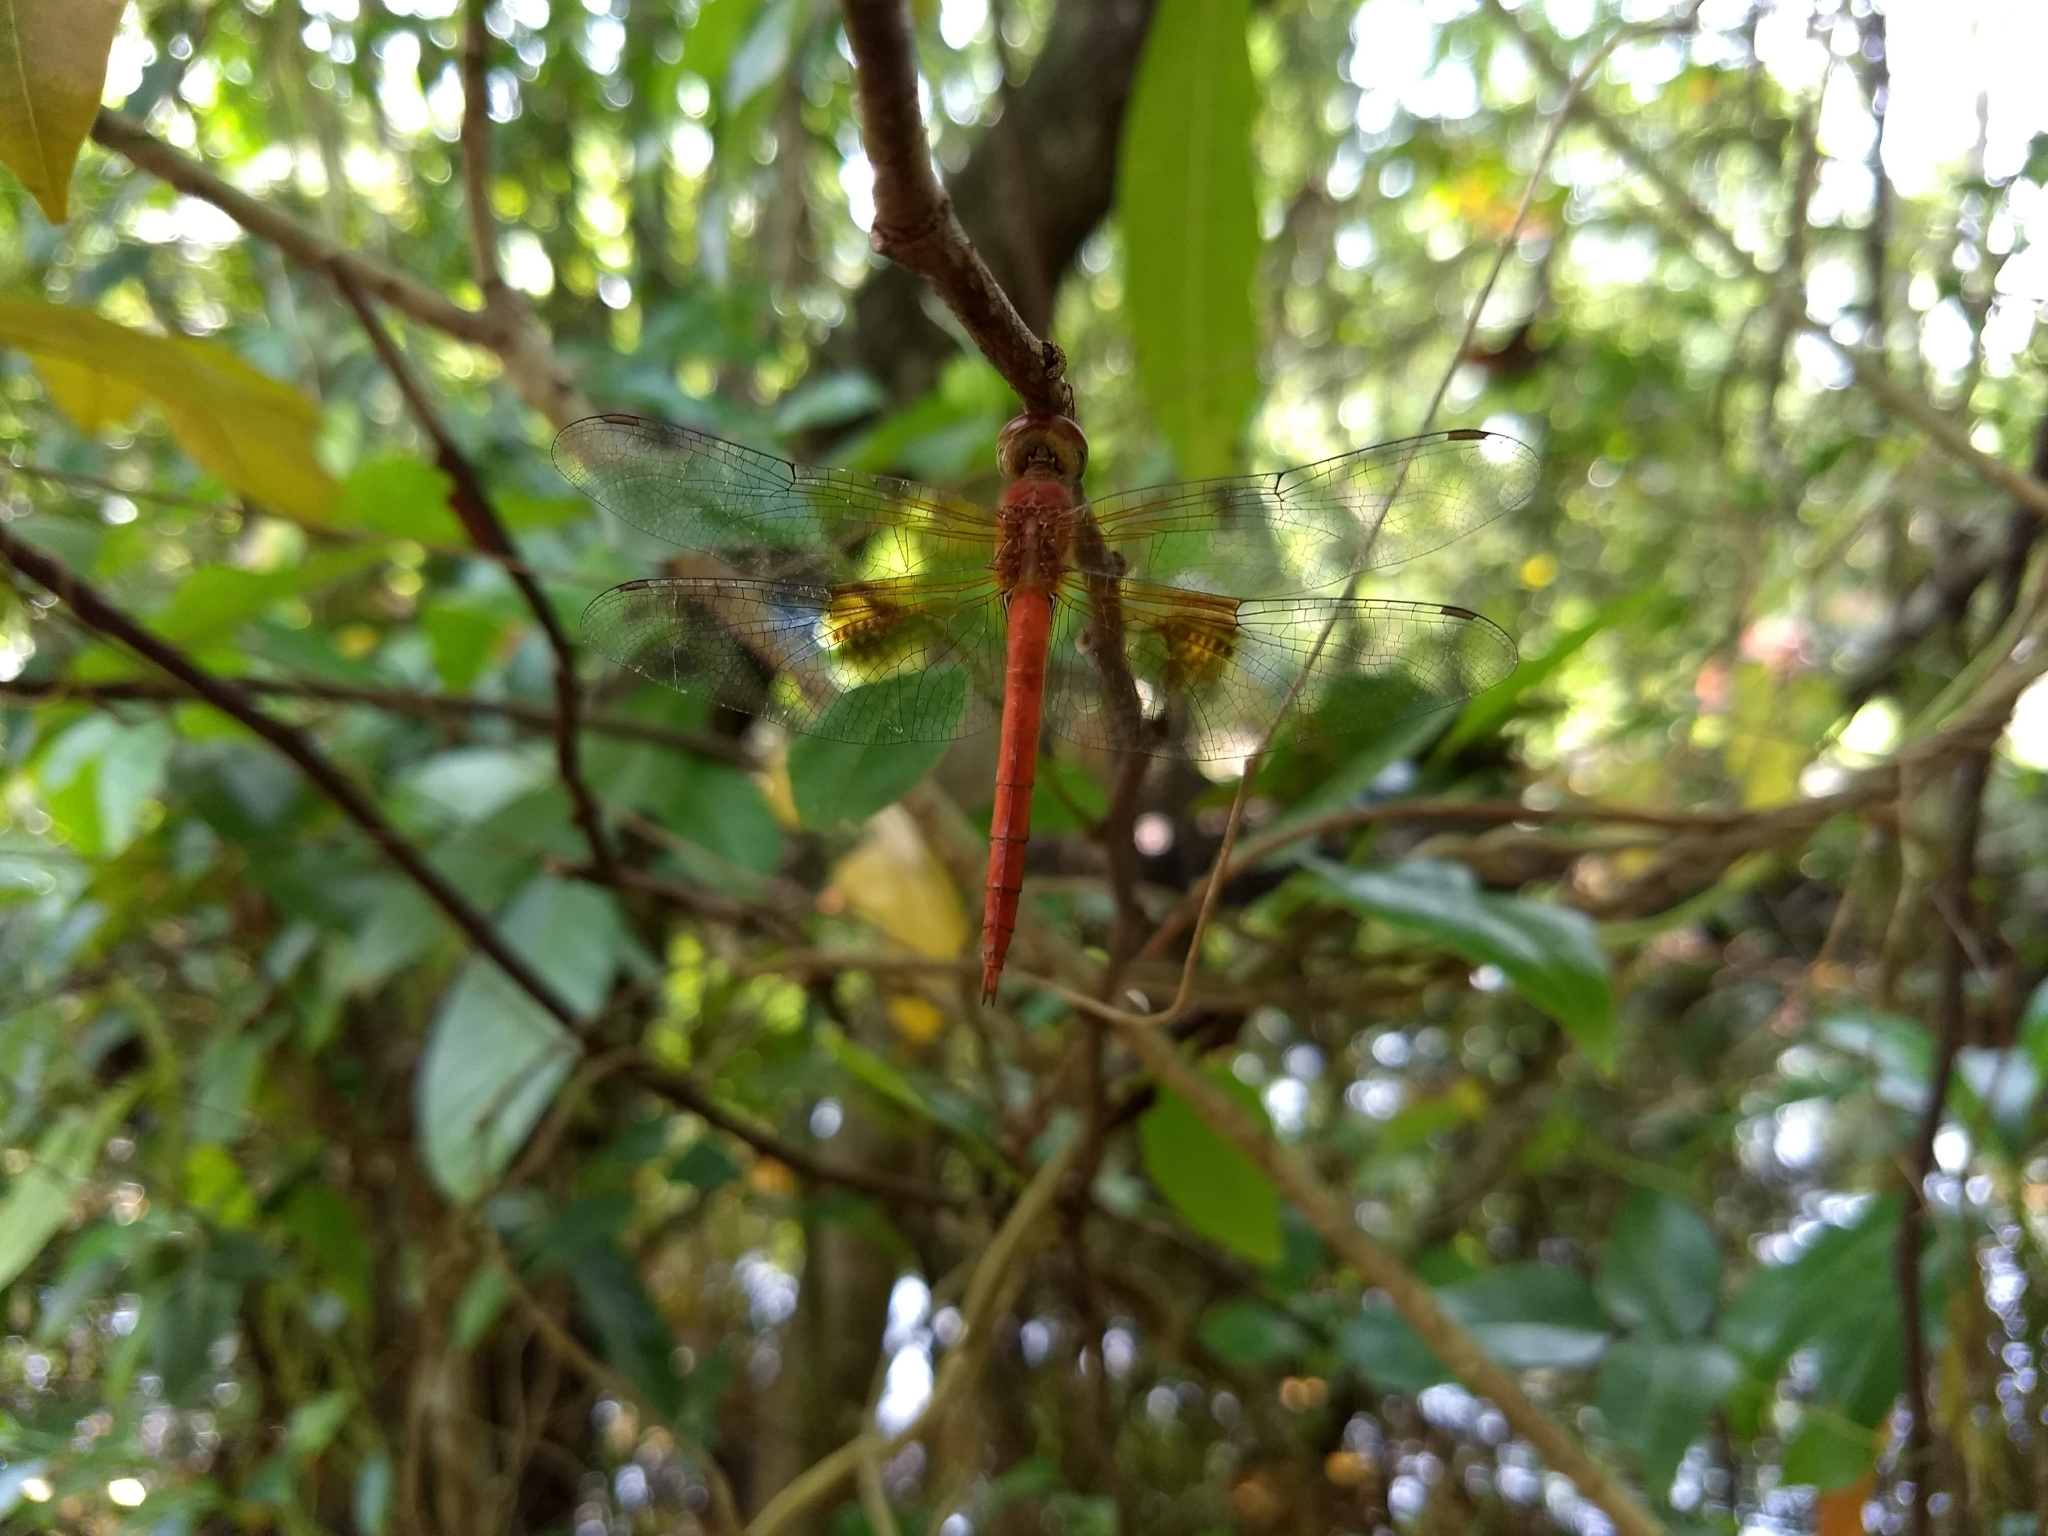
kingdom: Animalia
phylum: Arthropoda
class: Insecta
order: Odonata
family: Libellulidae
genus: Tholymis
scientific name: Tholymis tillarga
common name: Coral-tailed cloud wing
